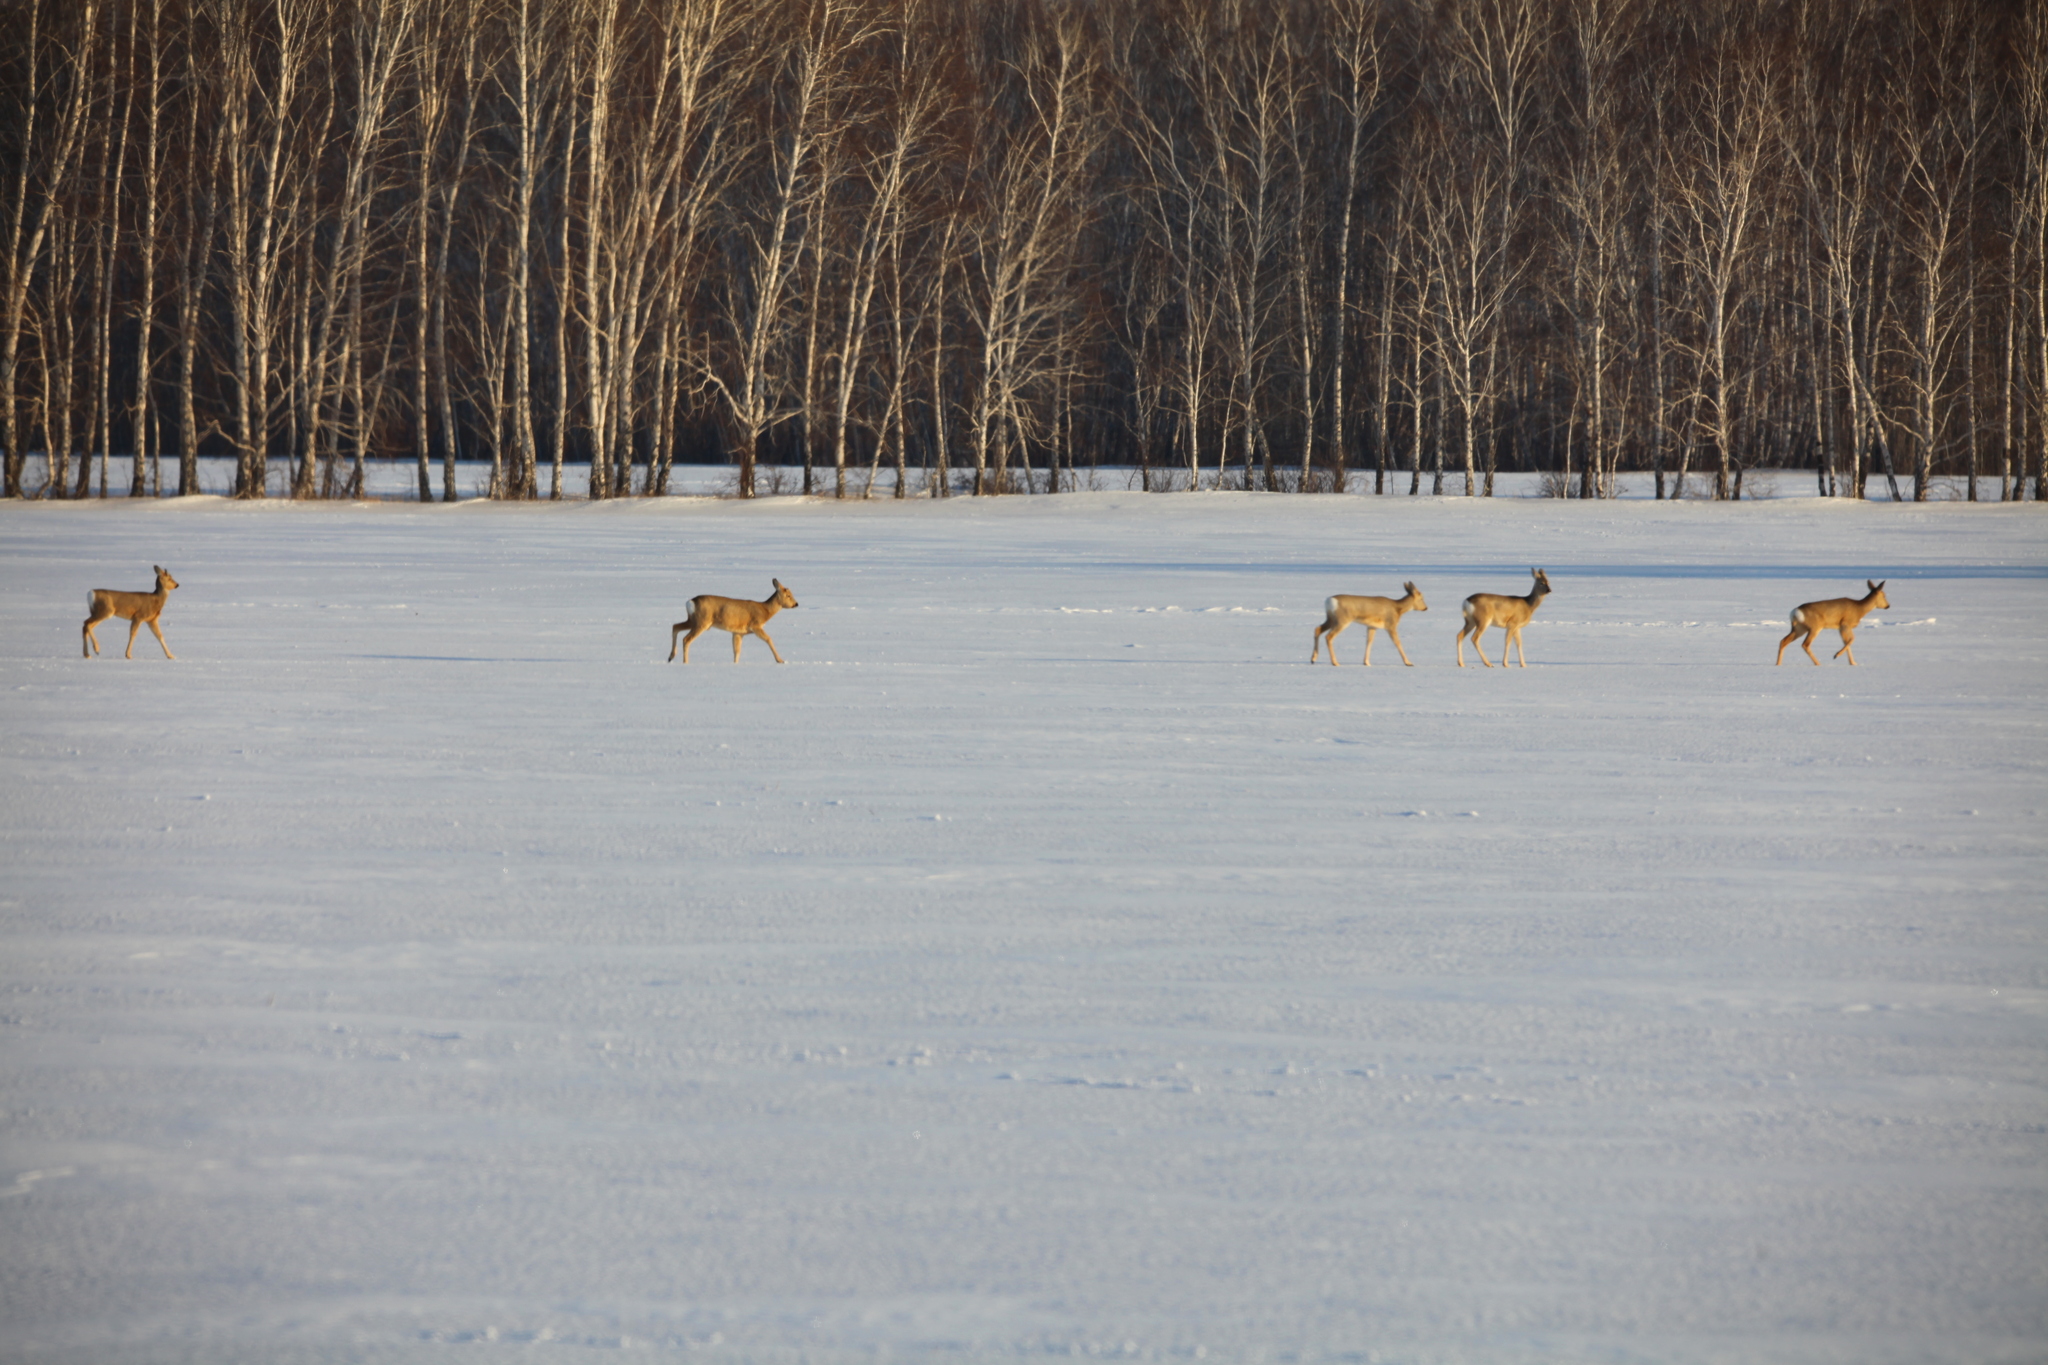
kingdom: Animalia
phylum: Chordata
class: Mammalia
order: Artiodactyla
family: Cervidae
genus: Capreolus
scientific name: Capreolus pygargus
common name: Siberian roe
